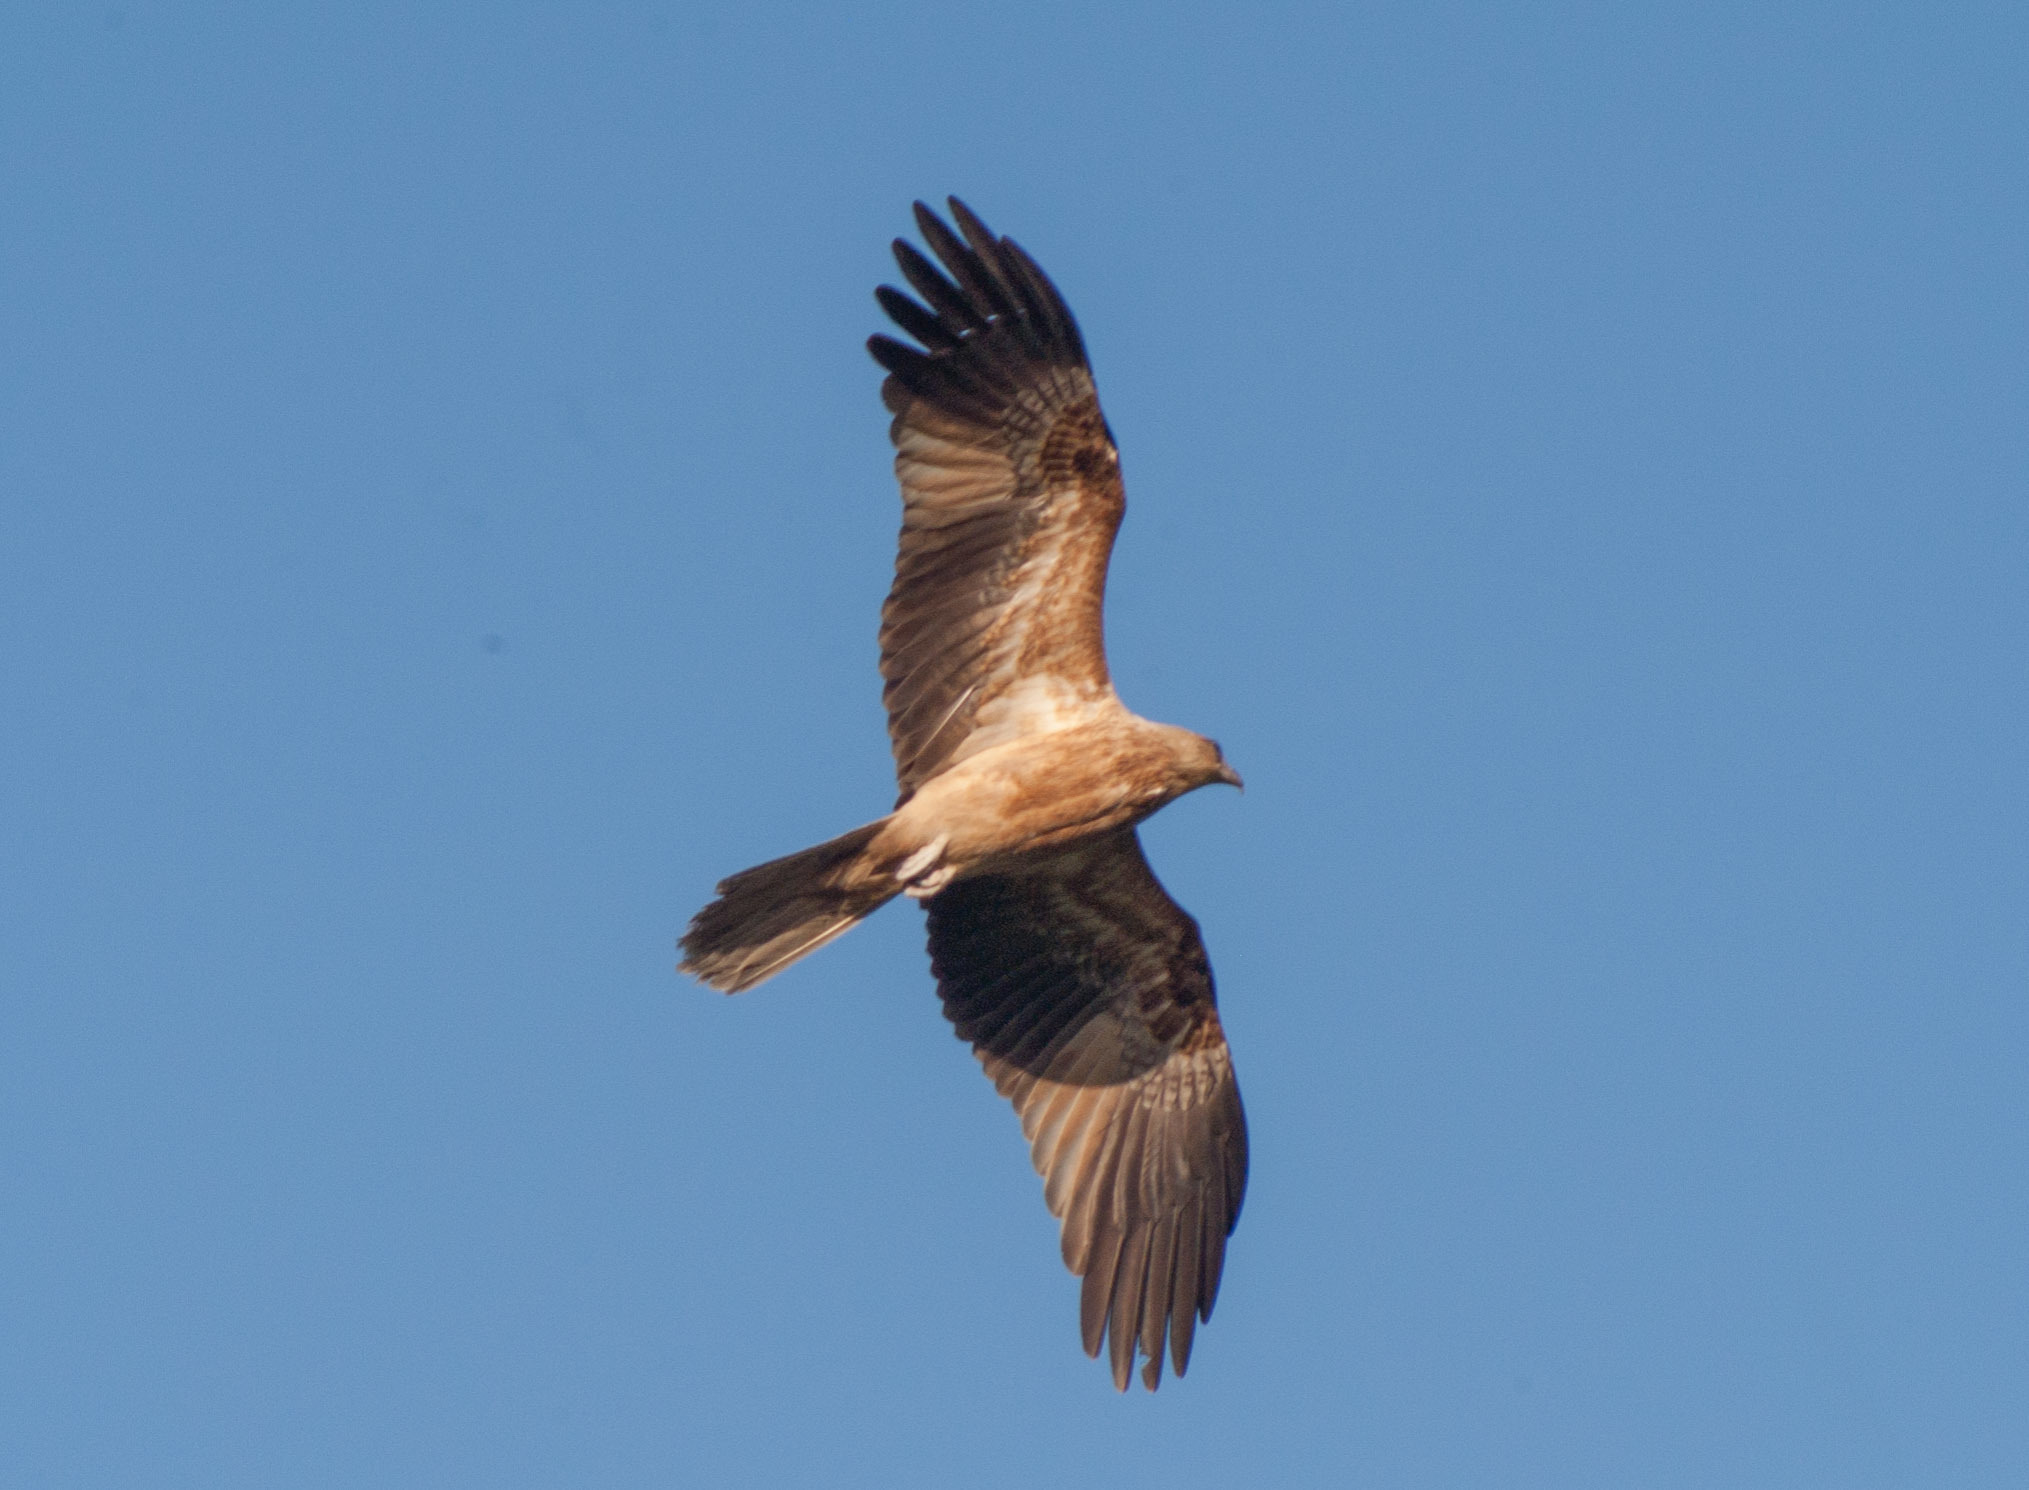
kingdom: Animalia
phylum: Chordata
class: Aves
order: Accipitriformes
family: Accipitridae
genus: Haliastur
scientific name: Haliastur sphenurus
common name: Whistling kite
